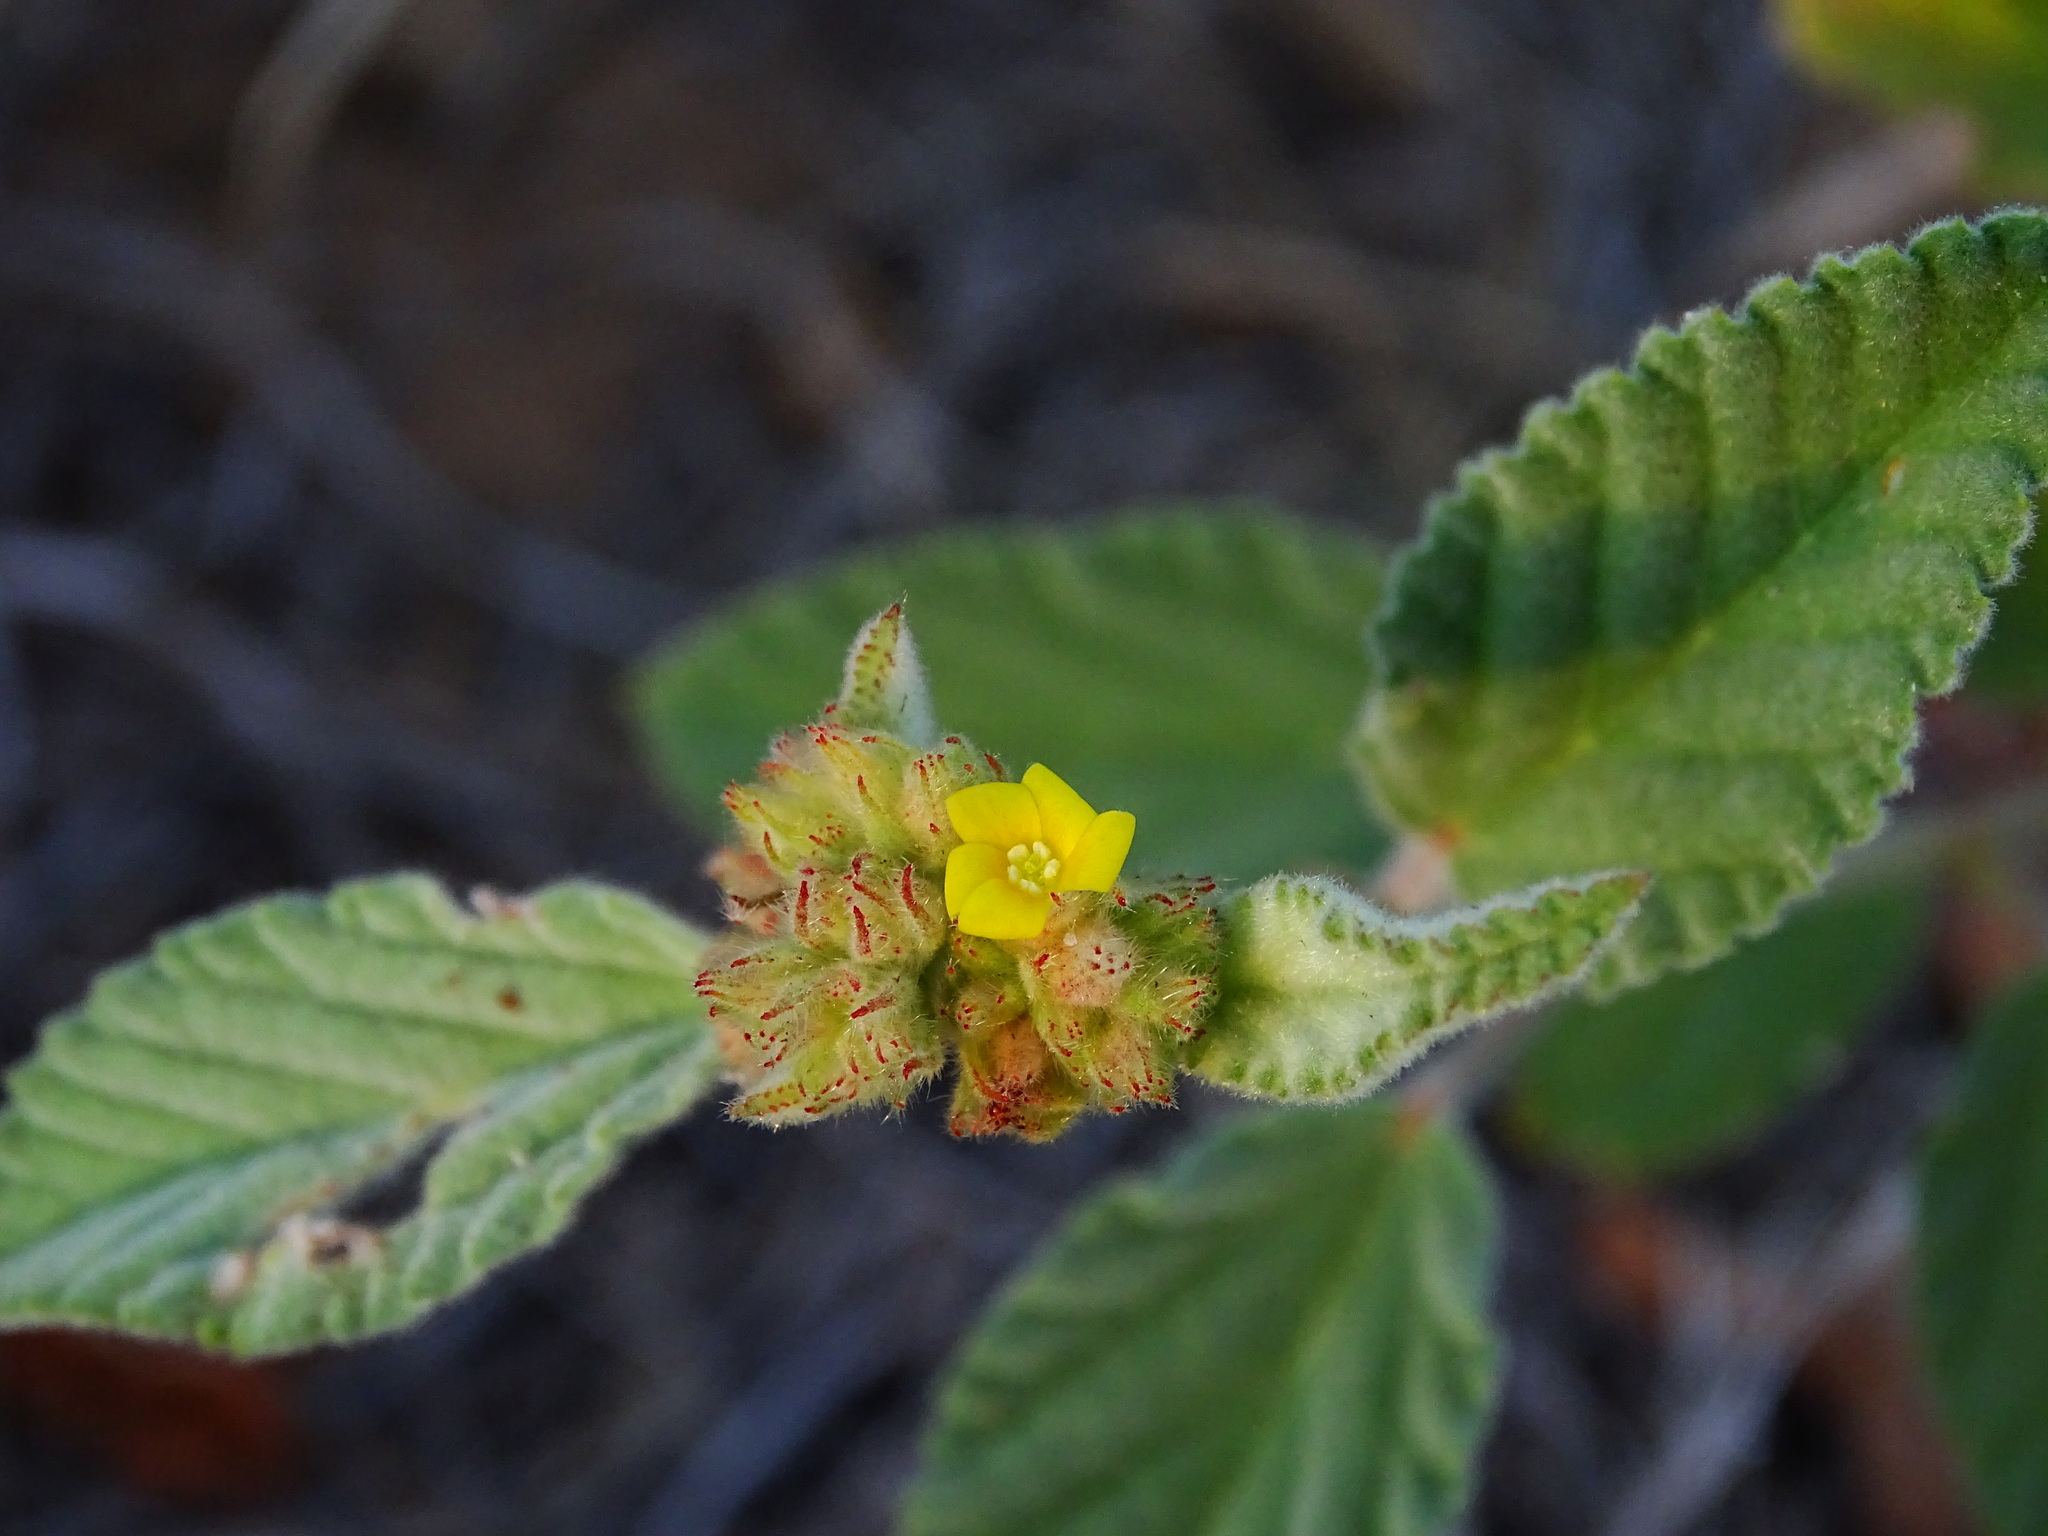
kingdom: Plantae
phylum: Tracheophyta
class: Magnoliopsida
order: Malvales
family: Malvaceae
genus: Waltheria
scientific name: Waltheria indica
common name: Leather-coat
